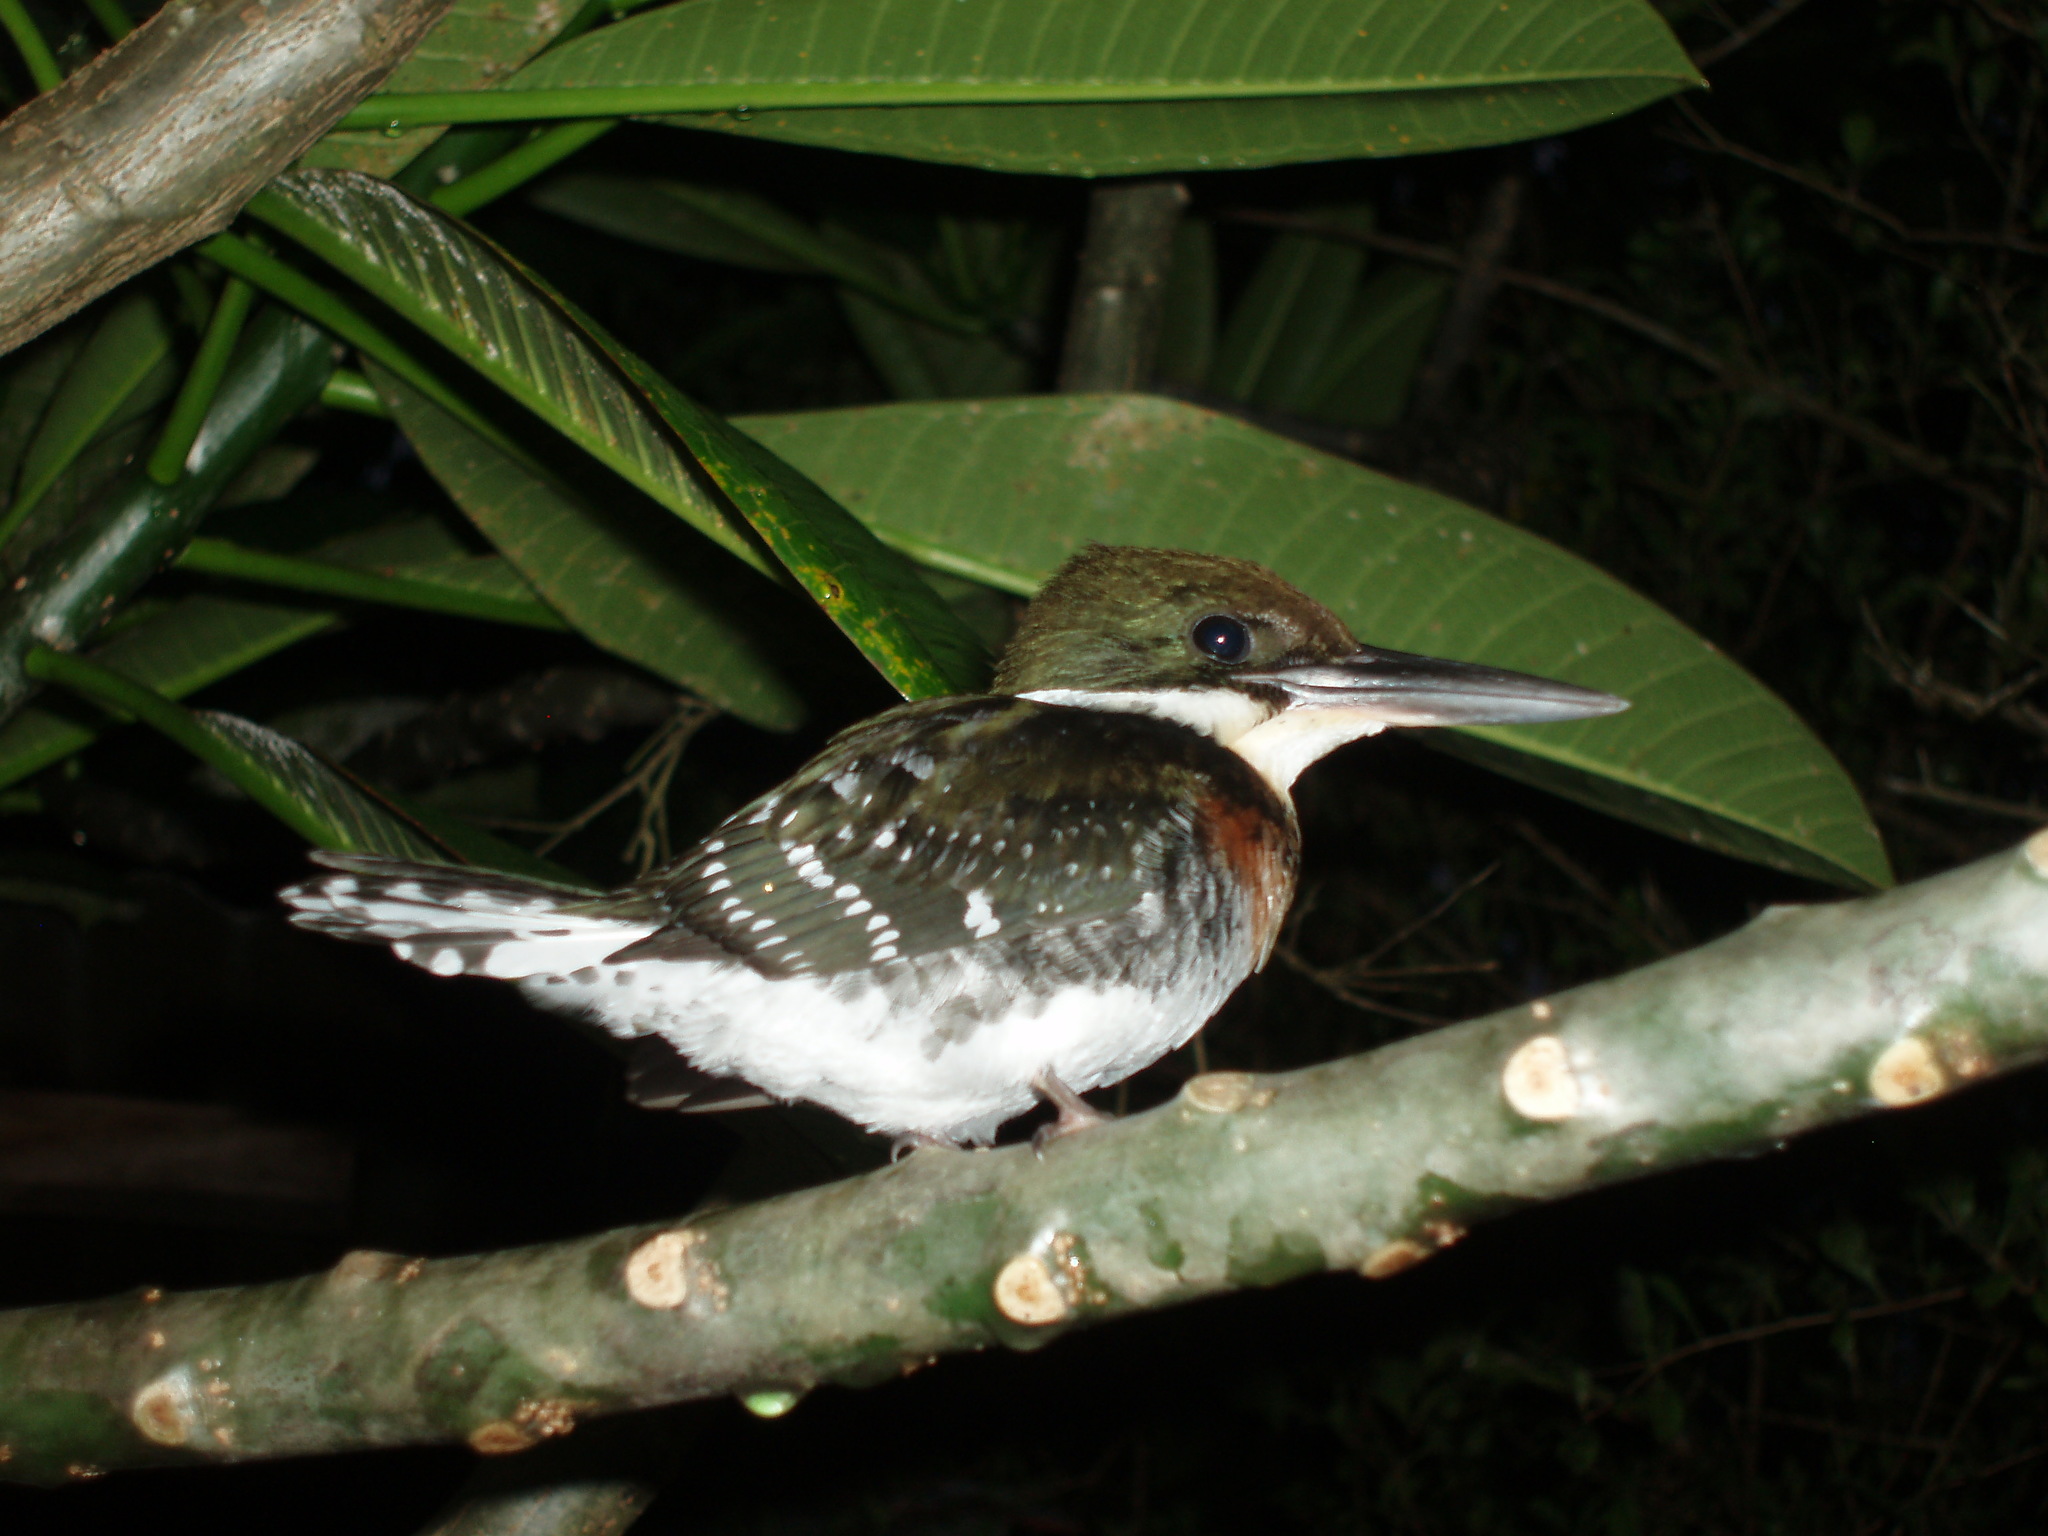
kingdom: Animalia
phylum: Chordata
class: Aves
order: Coraciiformes
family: Alcedinidae
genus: Chloroceryle
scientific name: Chloroceryle americana
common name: Green kingfisher
